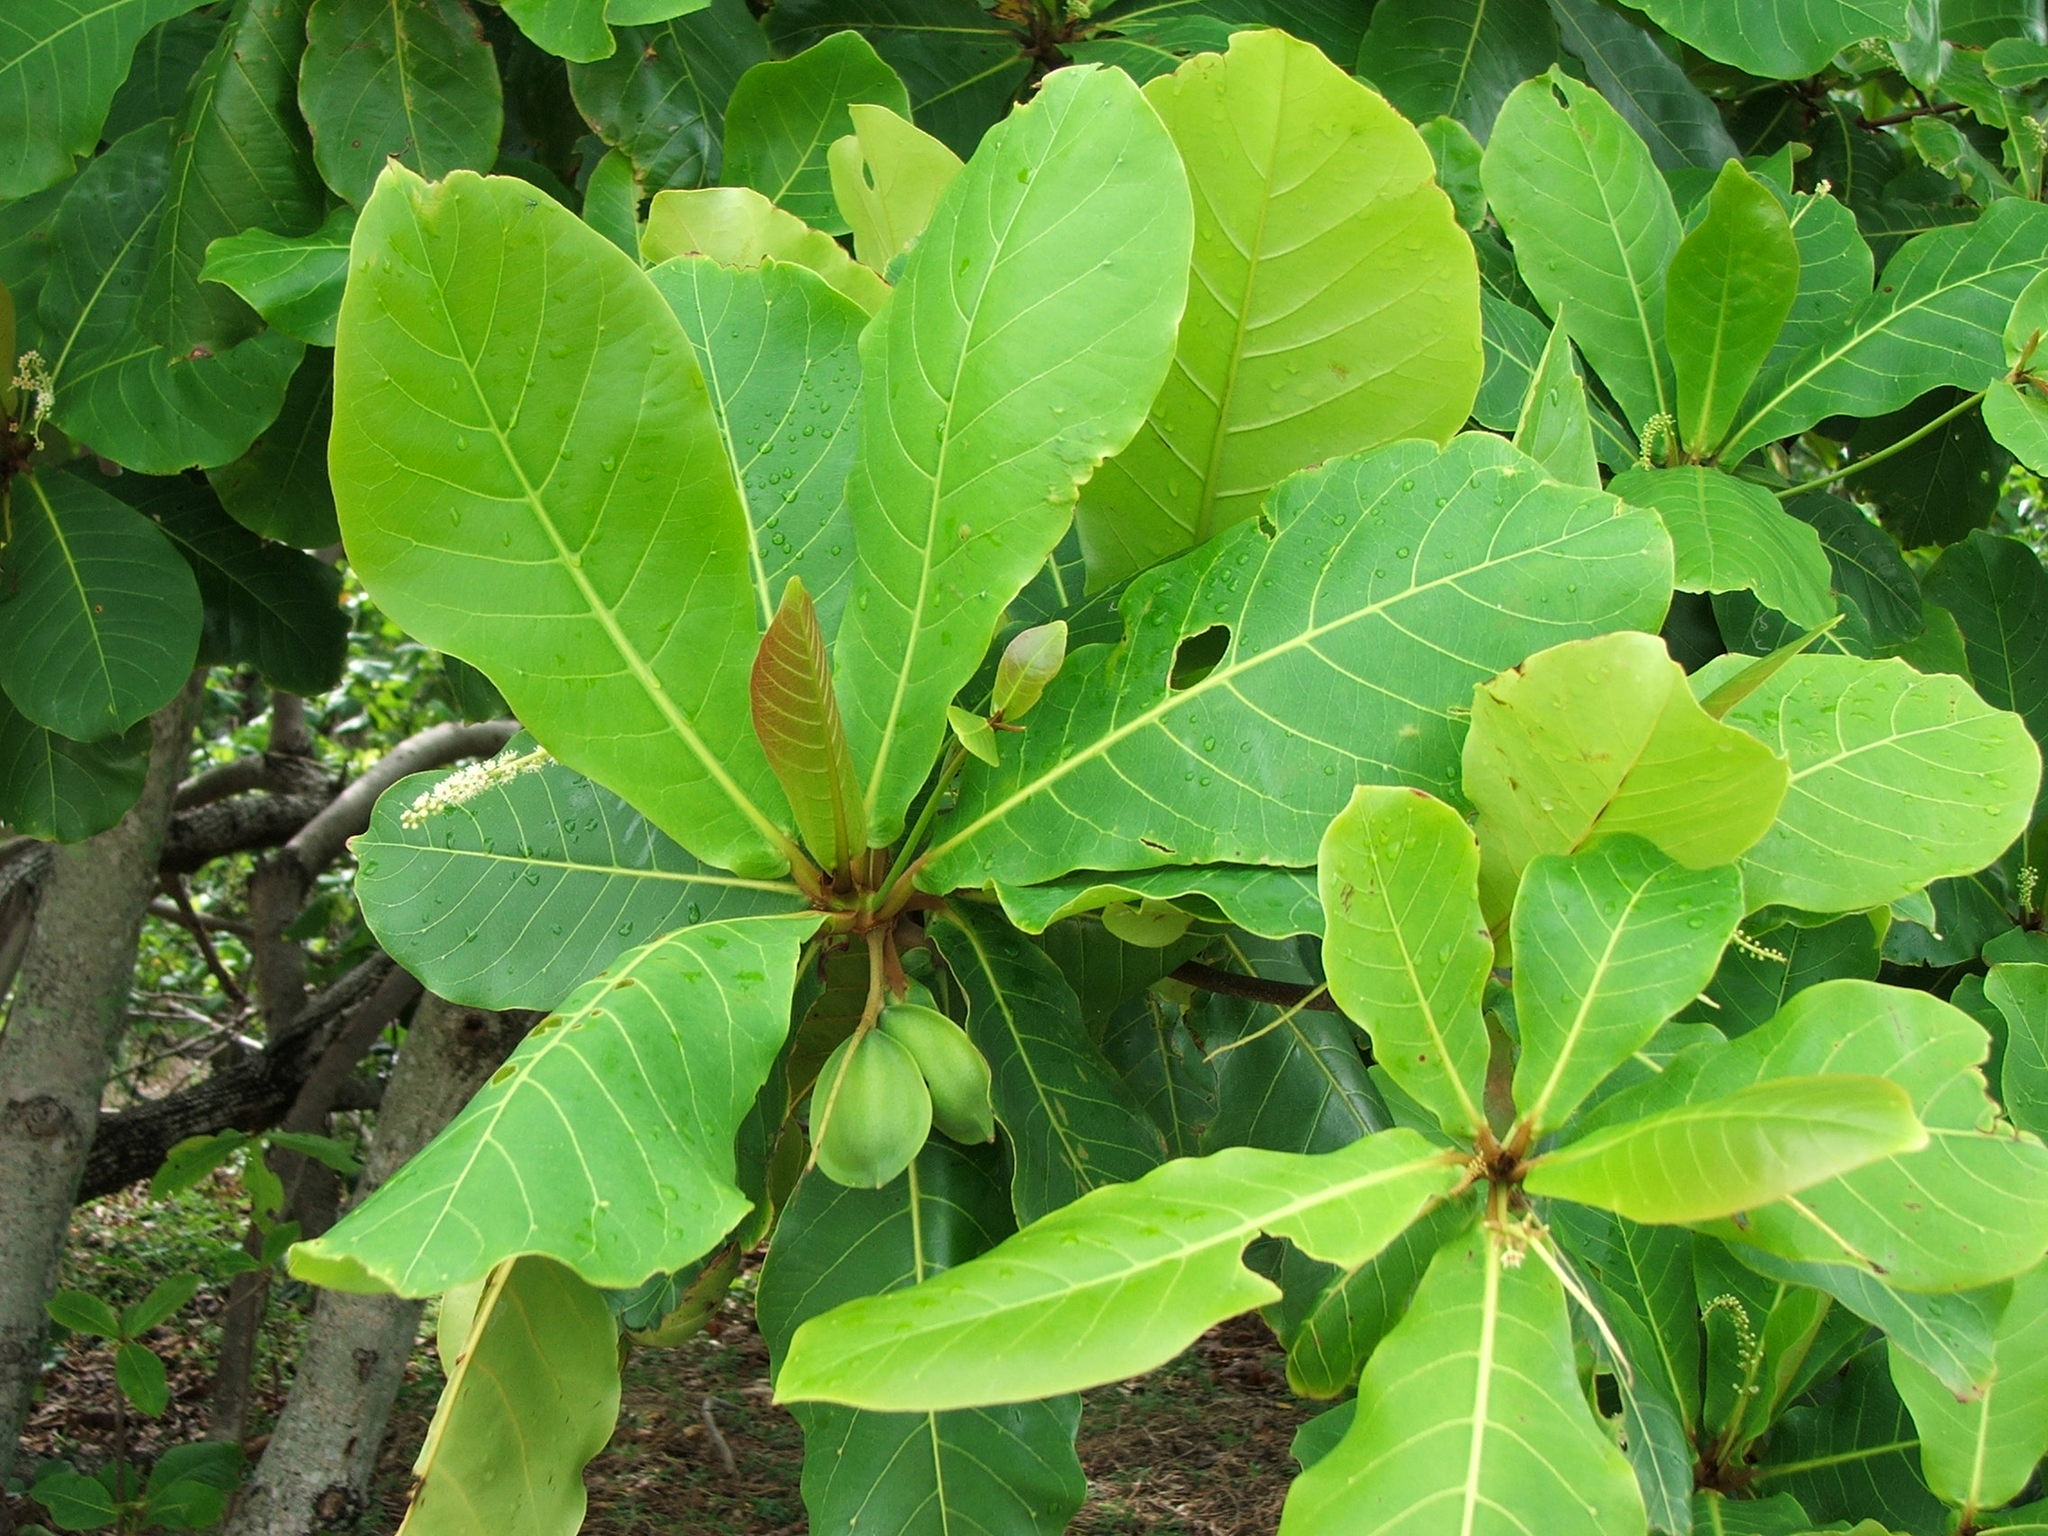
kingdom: Plantae
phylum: Tracheophyta
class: Magnoliopsida
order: Myrtales
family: Combretaceae
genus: Terminalia
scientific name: Terminalia catappa
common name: Tropical almond
